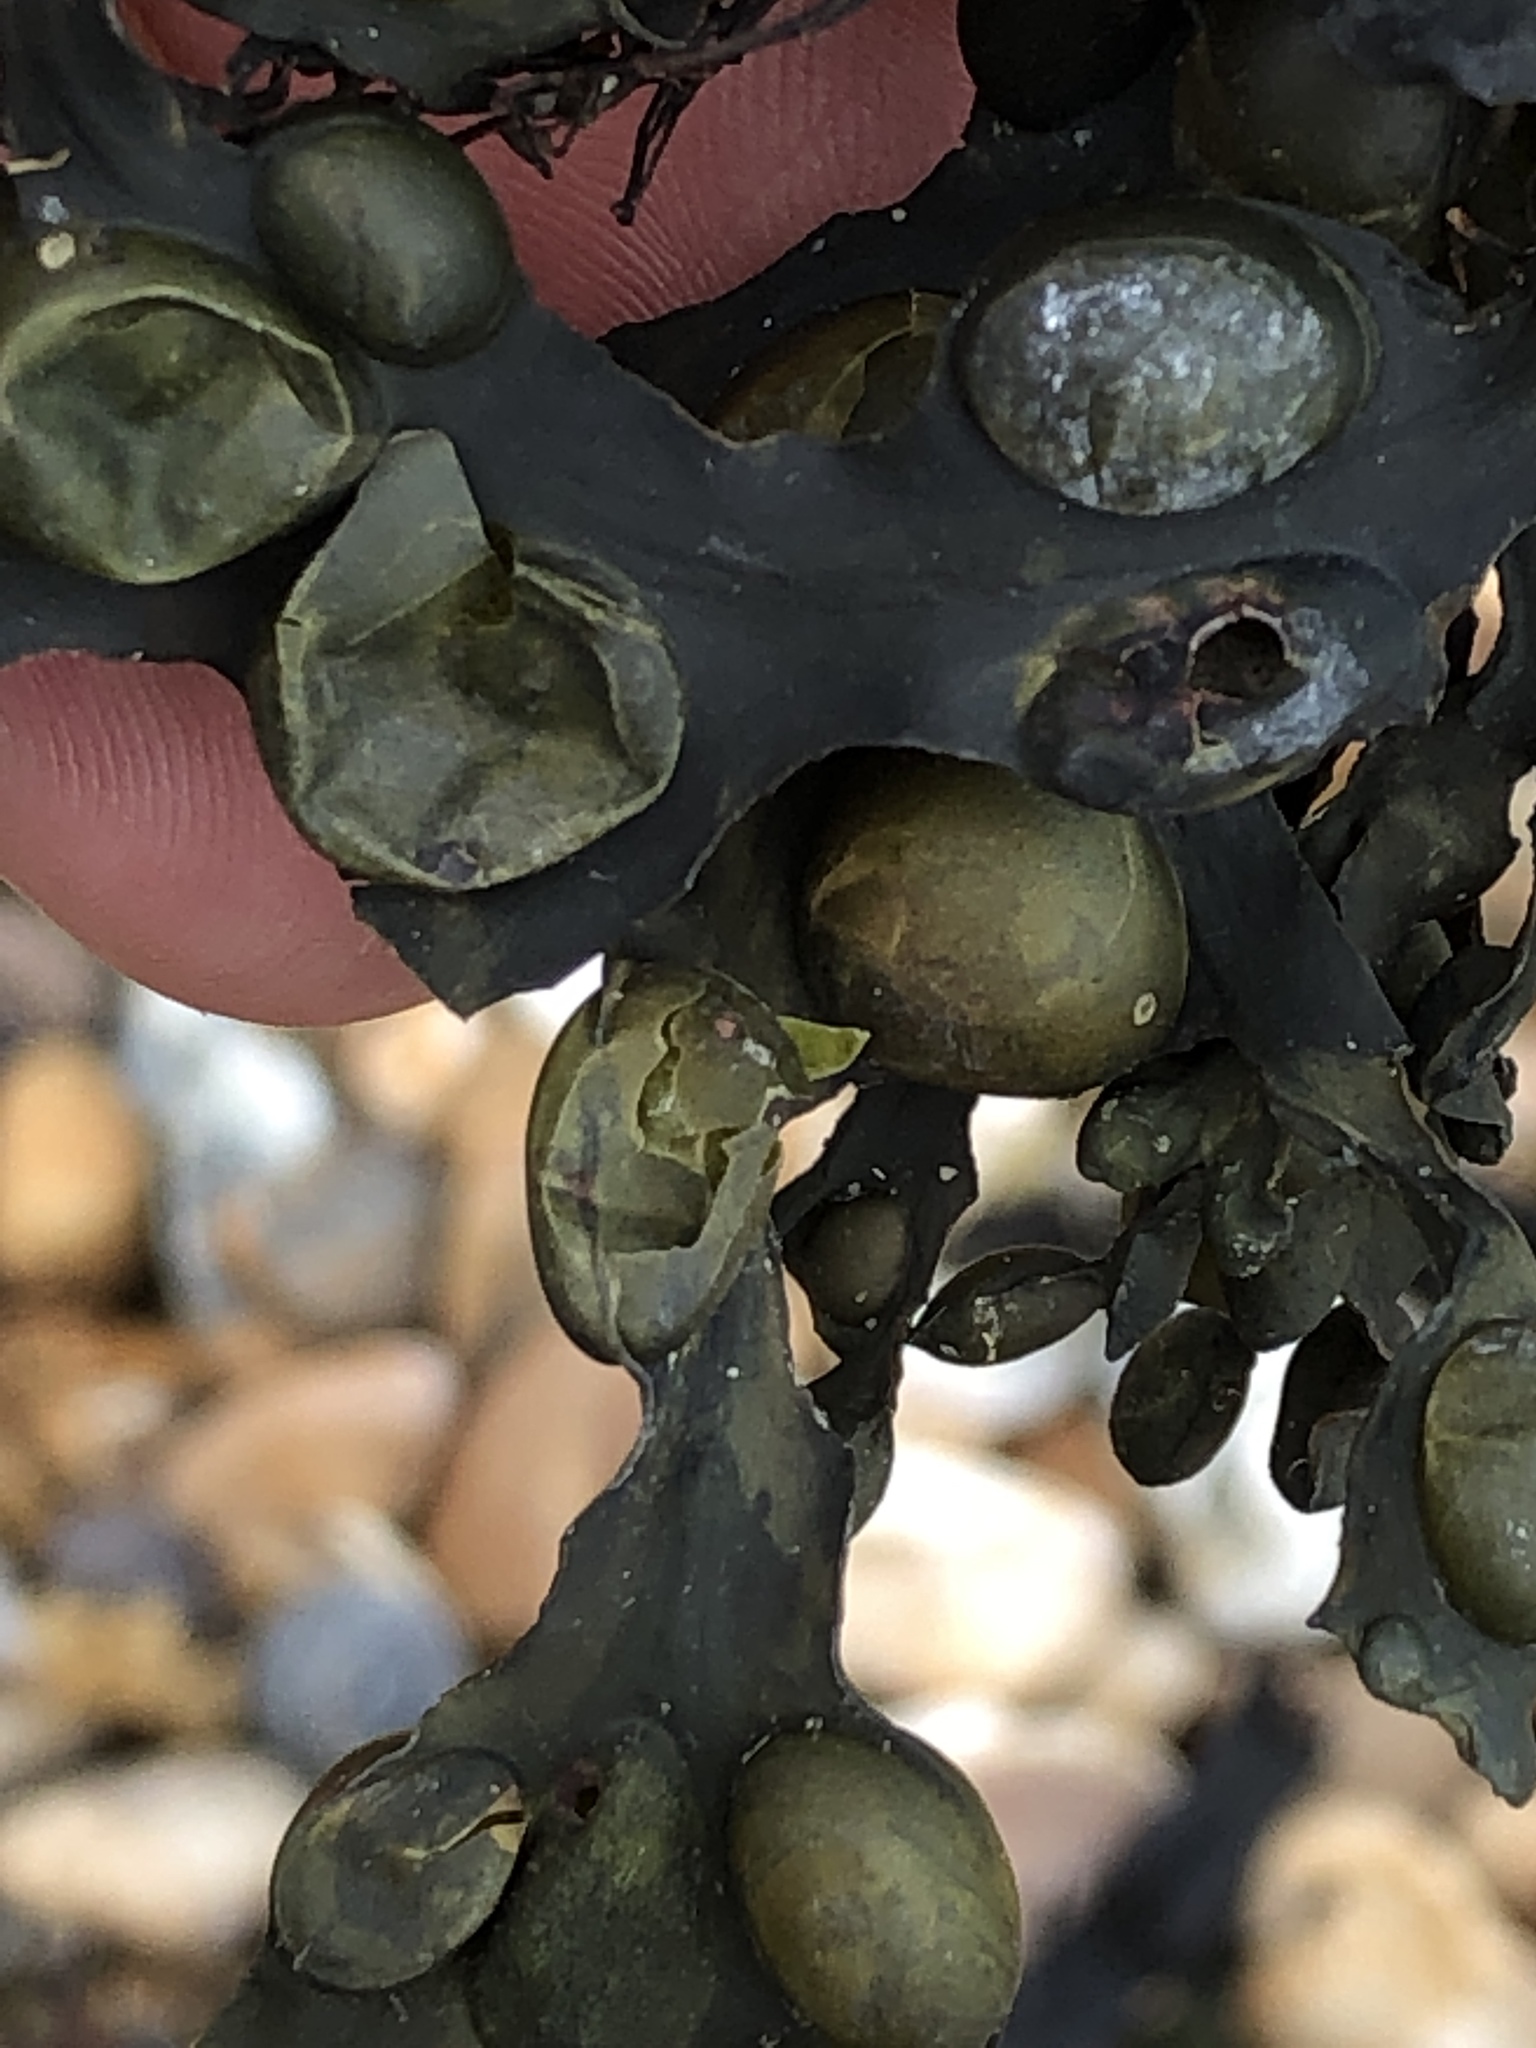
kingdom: Chromista
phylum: Ochrophyta
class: Phaeophyceae
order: Fucales
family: Fucaceae
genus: Fucus
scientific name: Fucus vesiculosus
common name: Bladder wrack
